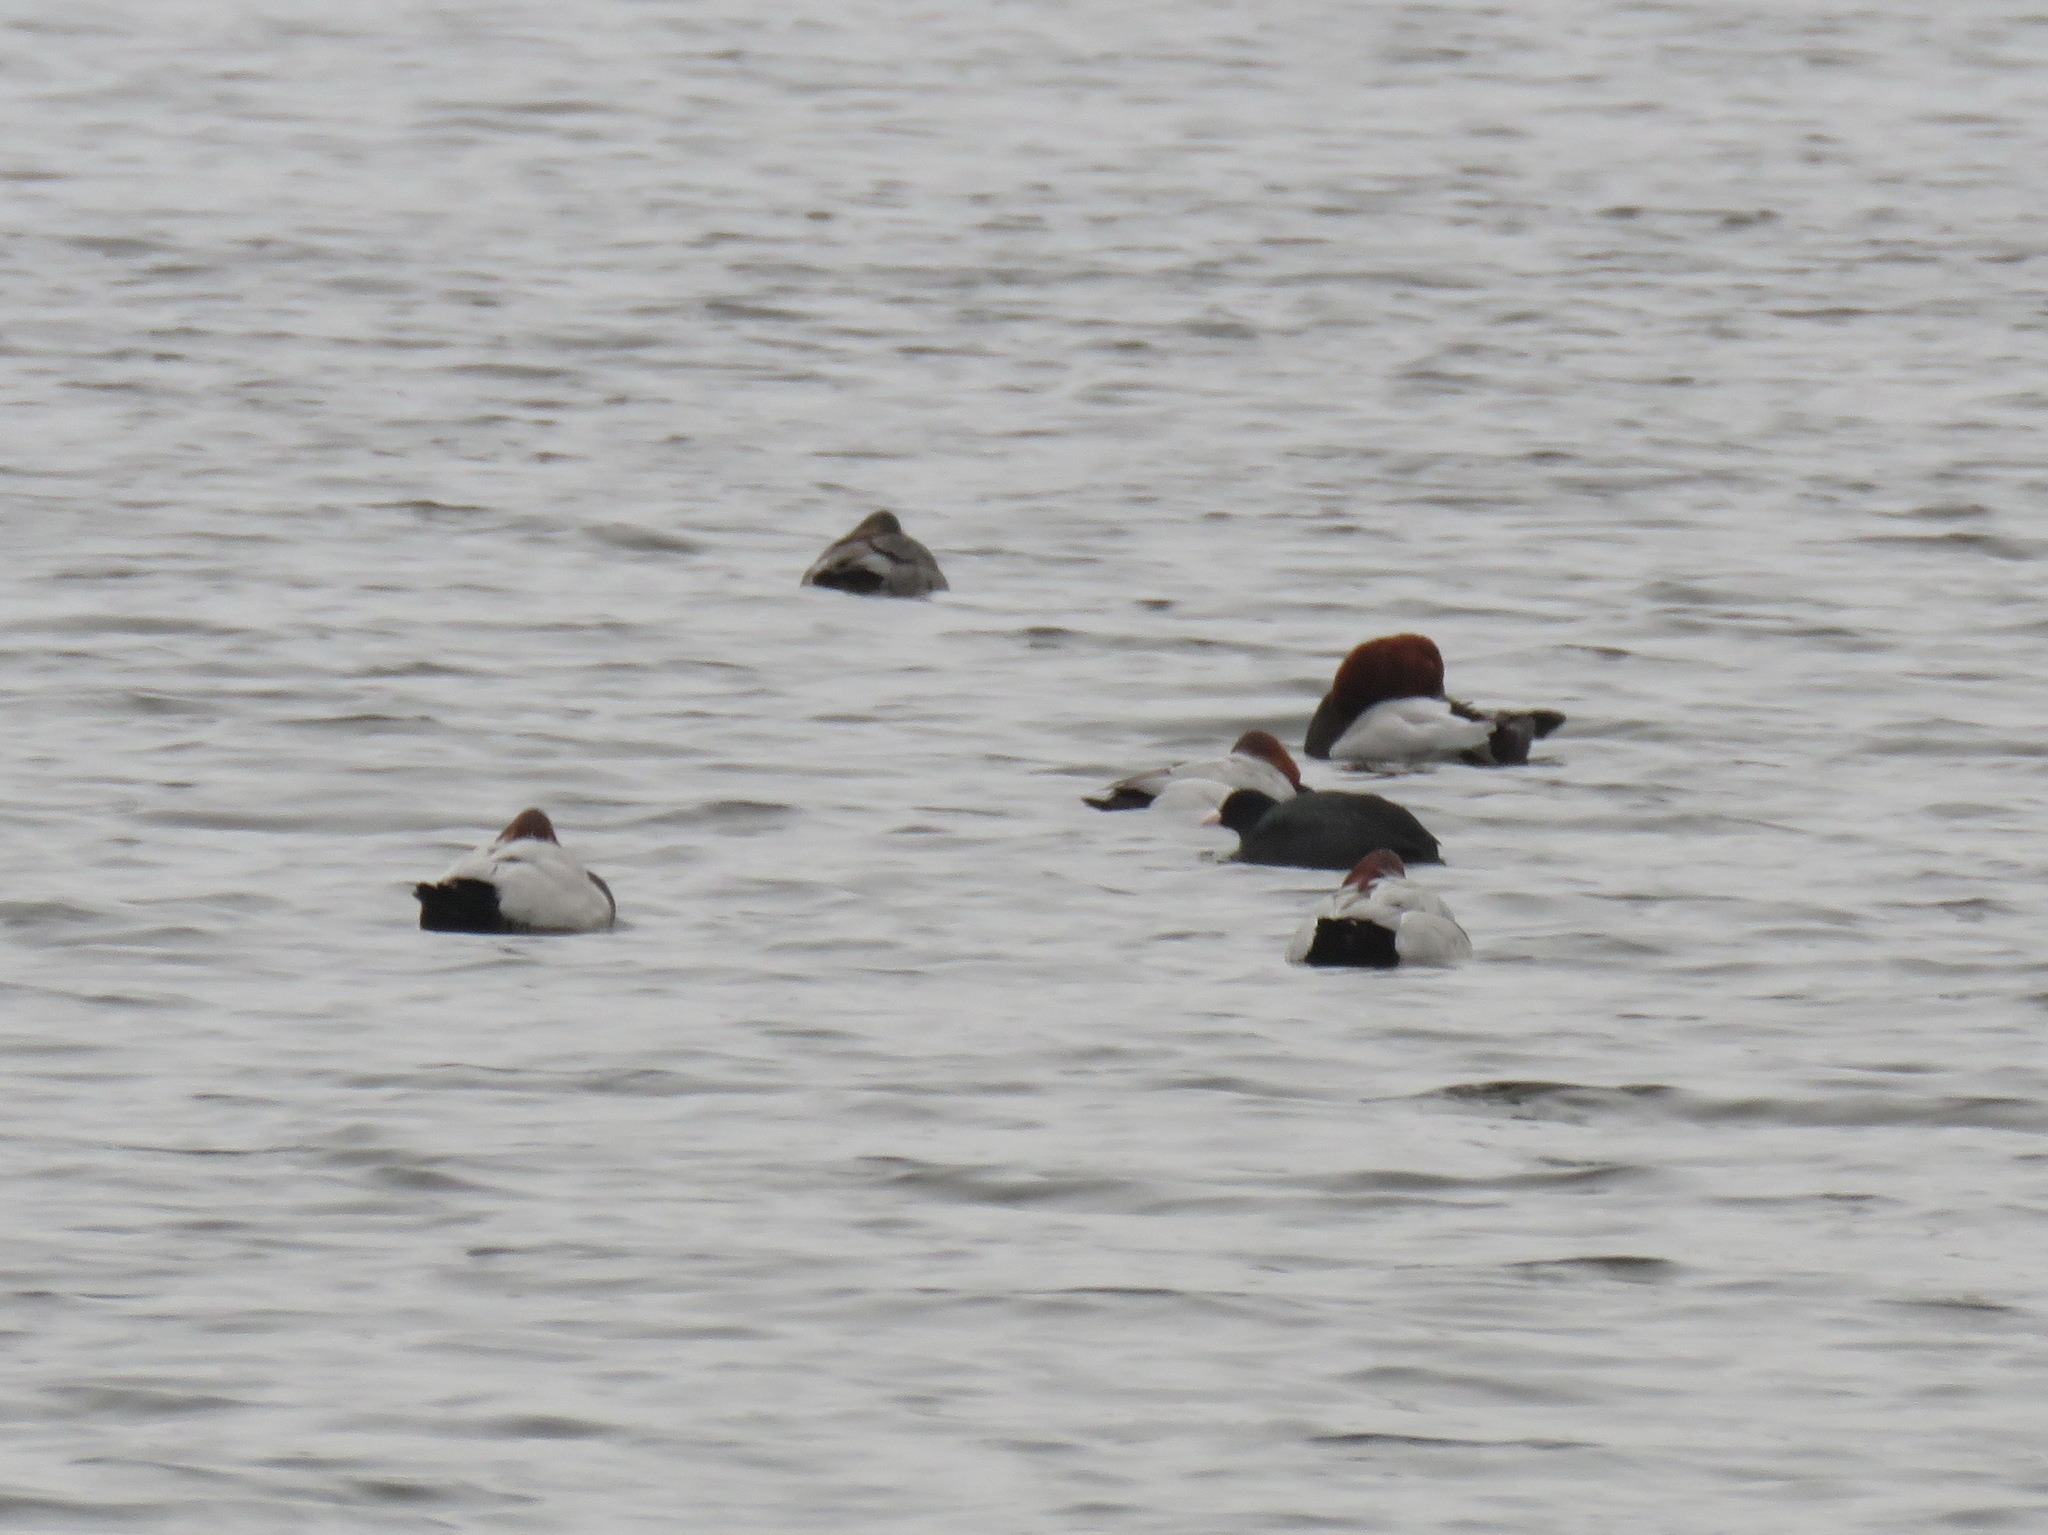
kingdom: Animalia
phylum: Chordata
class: Aves
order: Anseriformes
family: Anatidae
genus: Aythya
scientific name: Aythya ferina
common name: Common pochard
